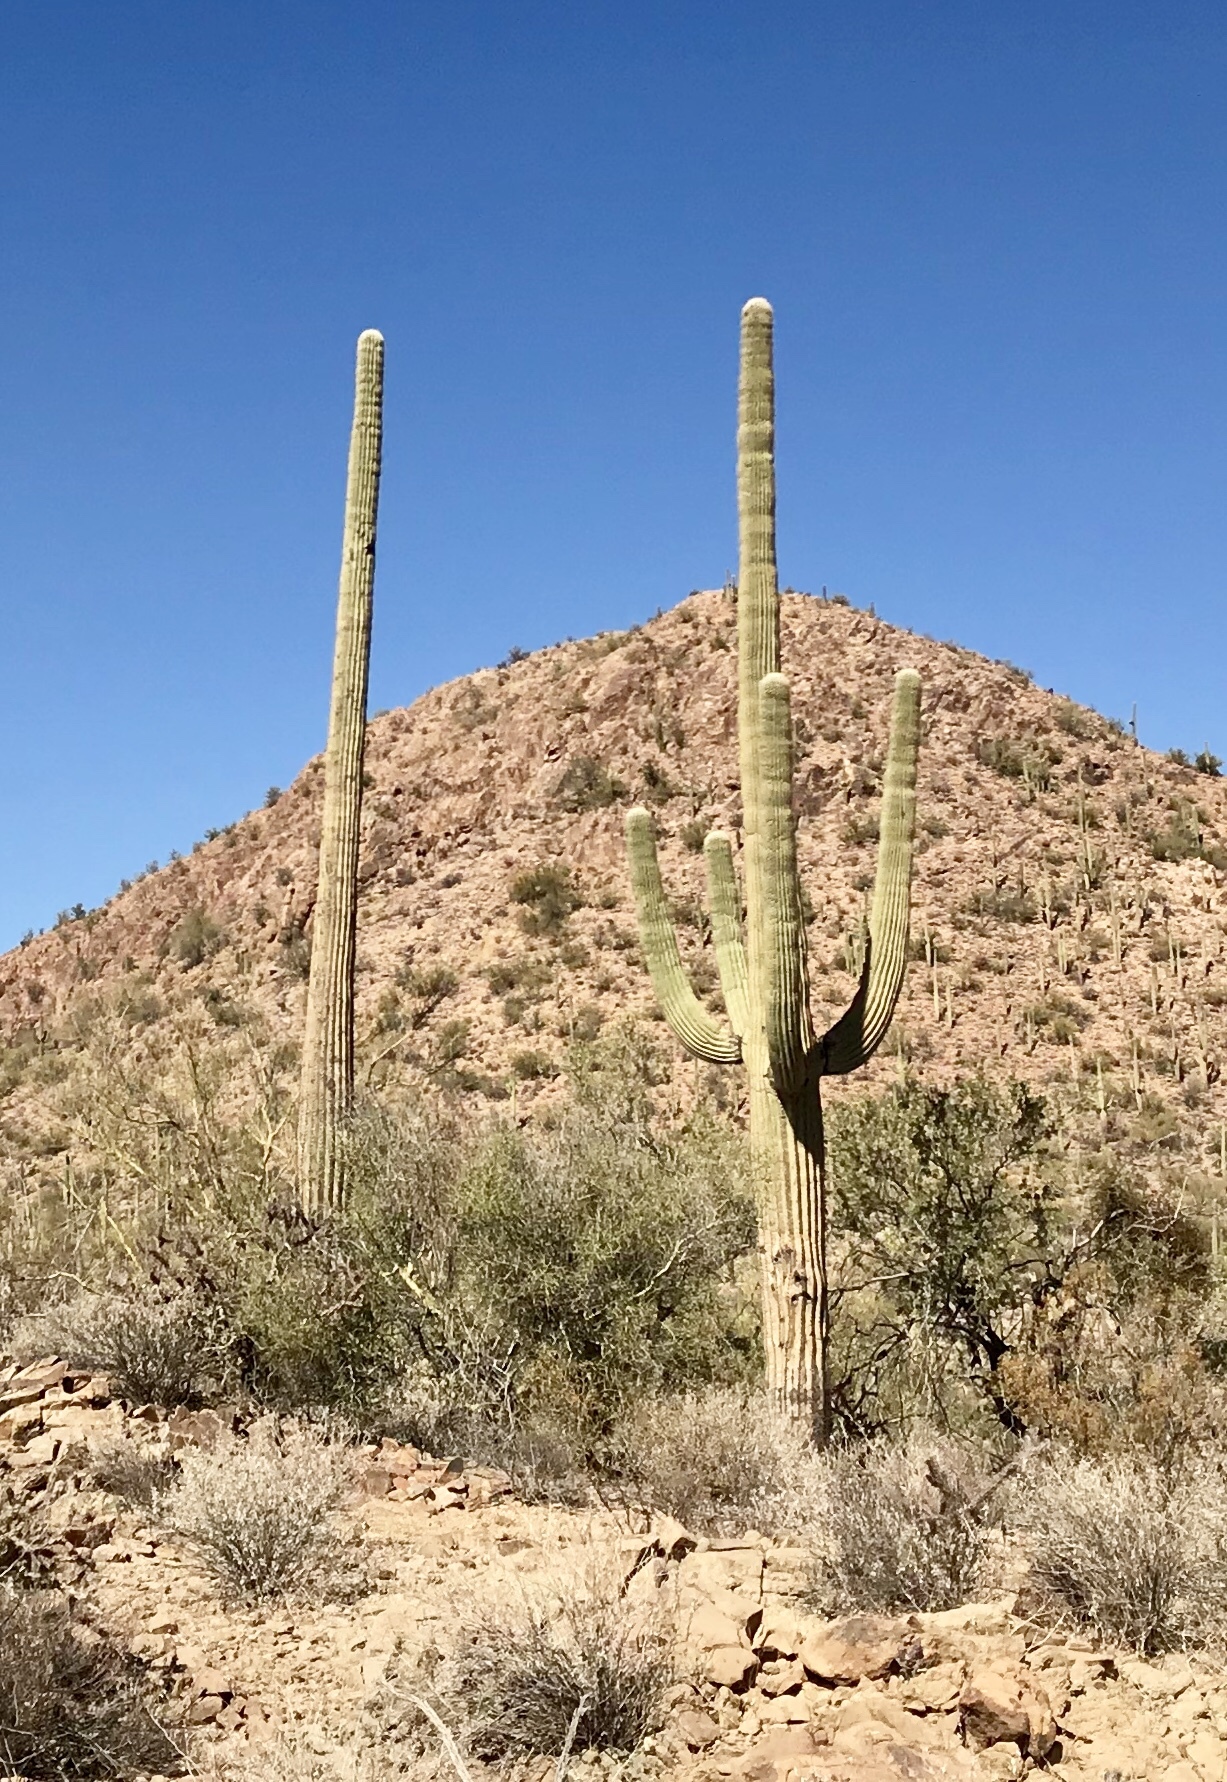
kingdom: Plantae
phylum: Tracheophyta
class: Magnoliopsida
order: Caryophyllales
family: Cactaceae
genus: Carnegiea
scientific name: Carnegiea gigantea
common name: Saguaro
